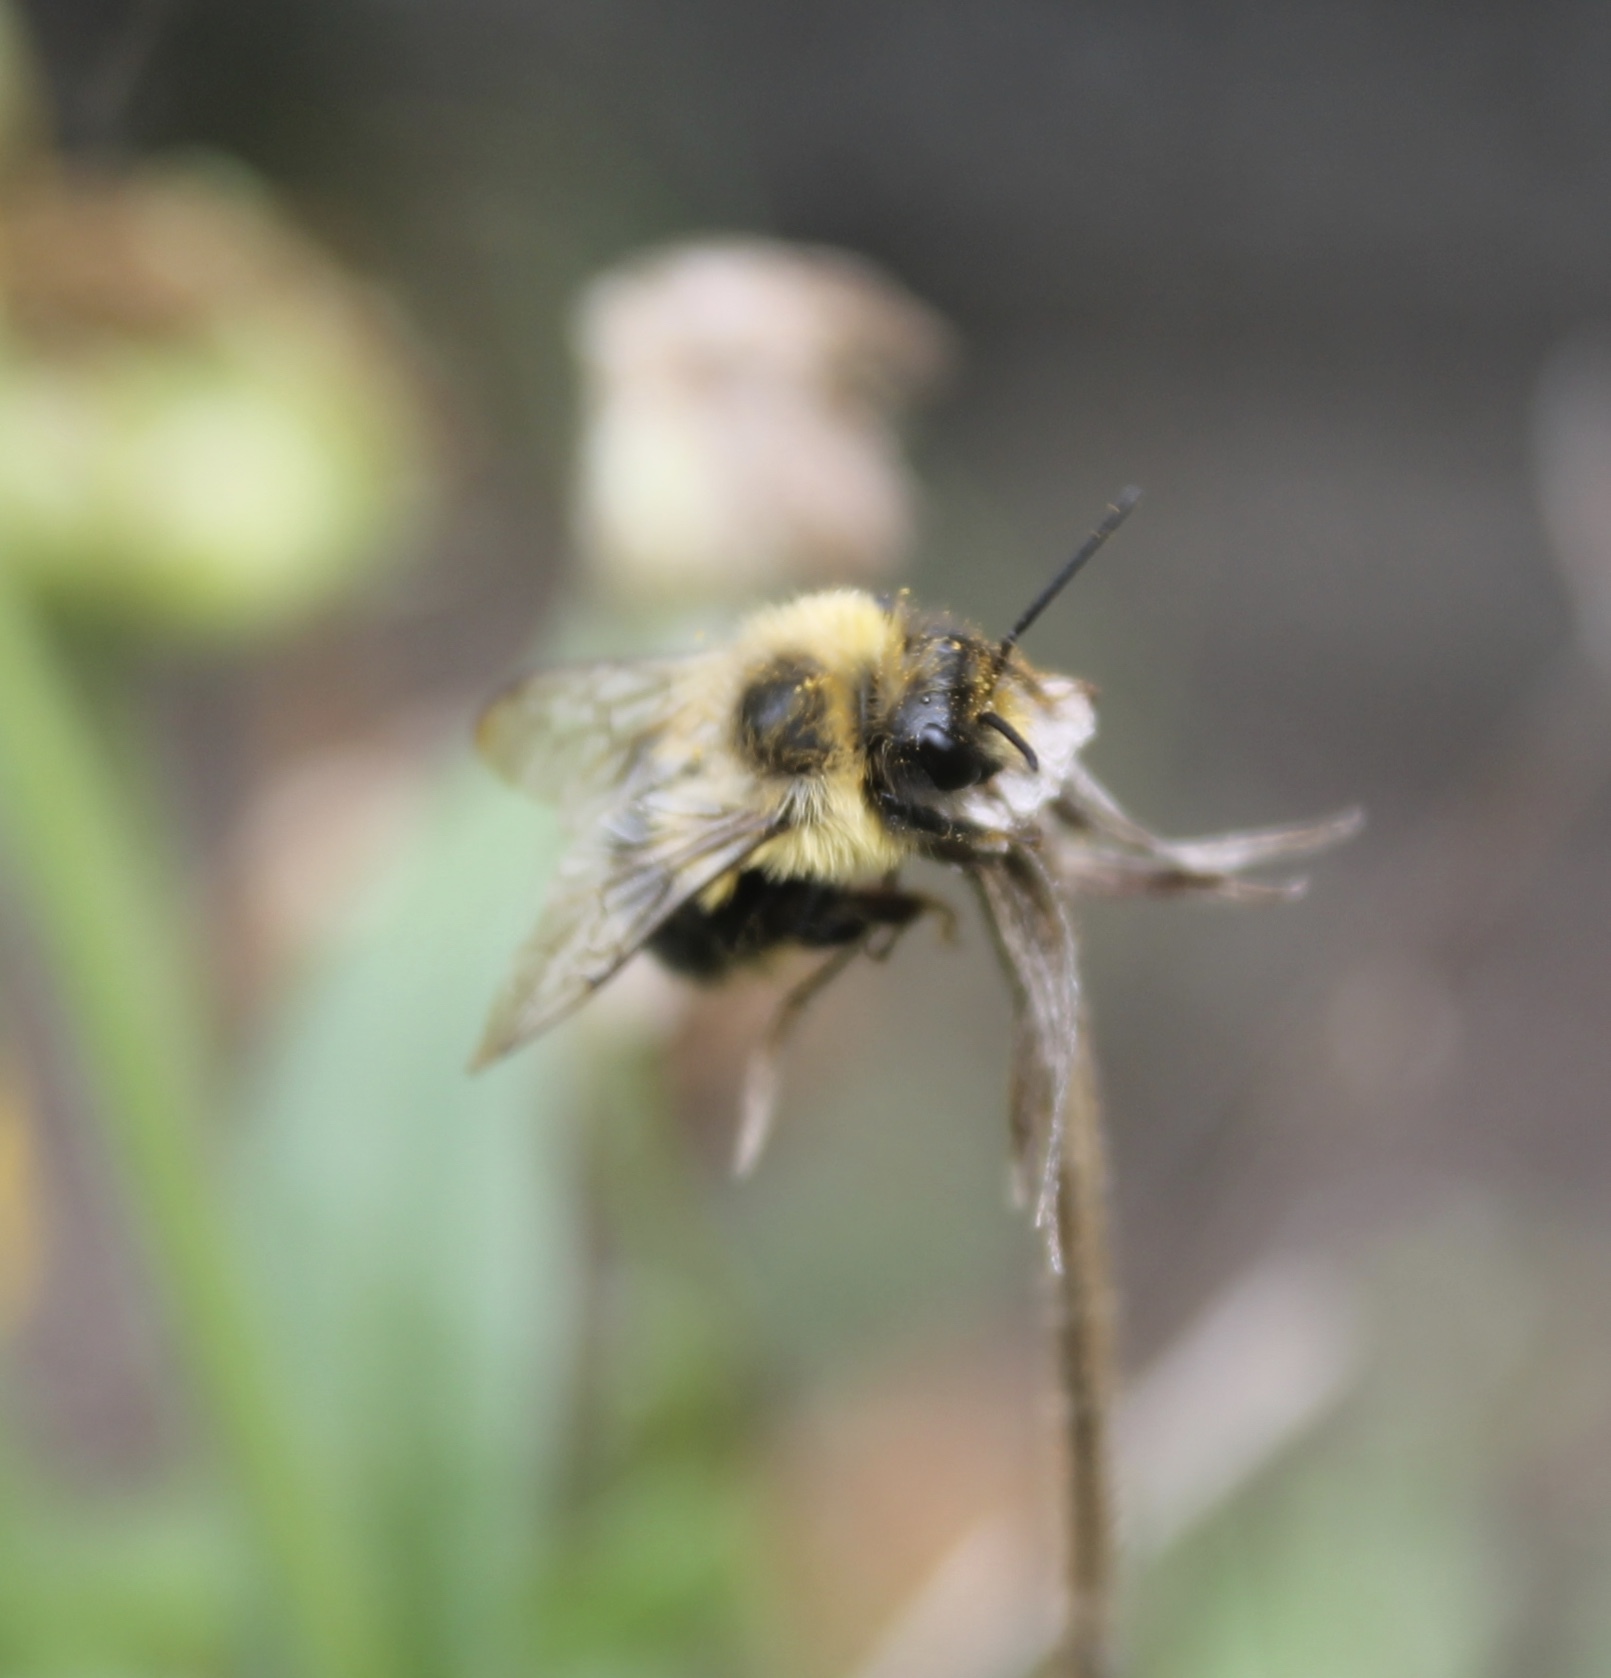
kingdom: Animalia
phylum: Arthropoda
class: Insecta
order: Hymenoptera
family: Apidae
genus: Bombus
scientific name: Bombus impatiens
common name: Common eastern bumble bee
